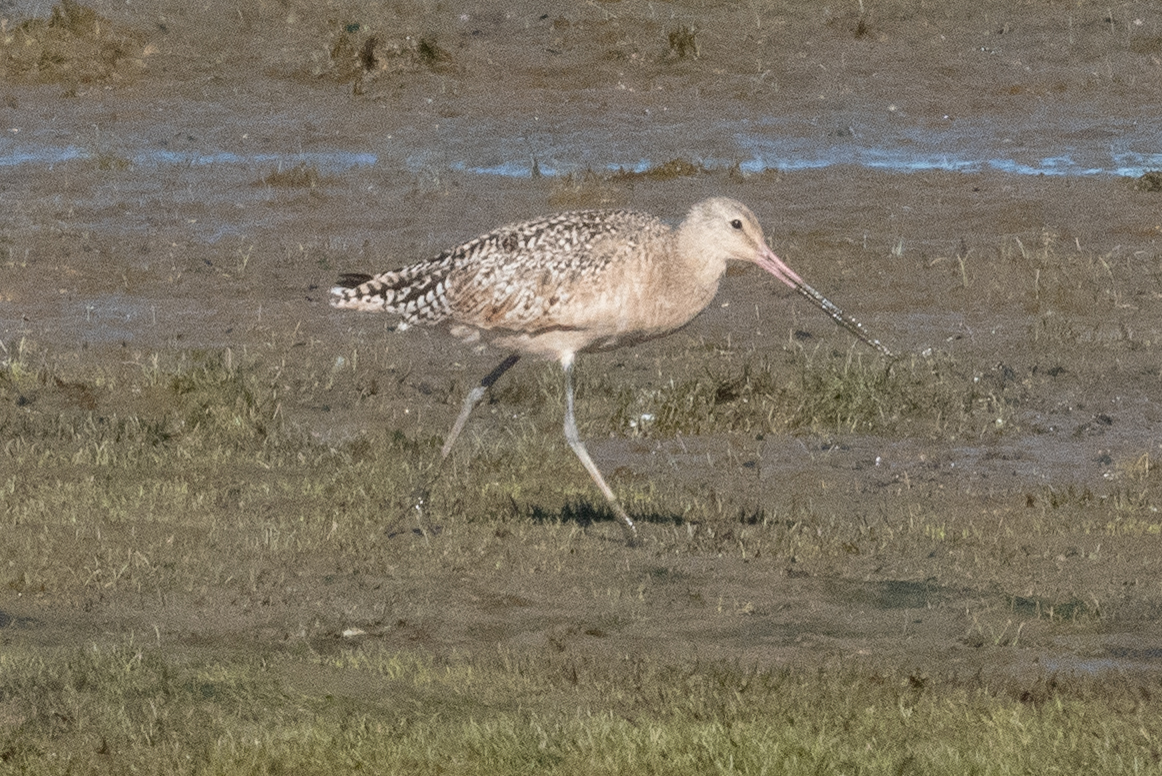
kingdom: Animalia
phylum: Chordata
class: Aves
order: Charadriiformes
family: Scolopacidae
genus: Limosa
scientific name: Limosa fedoa
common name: Marbled godwit
